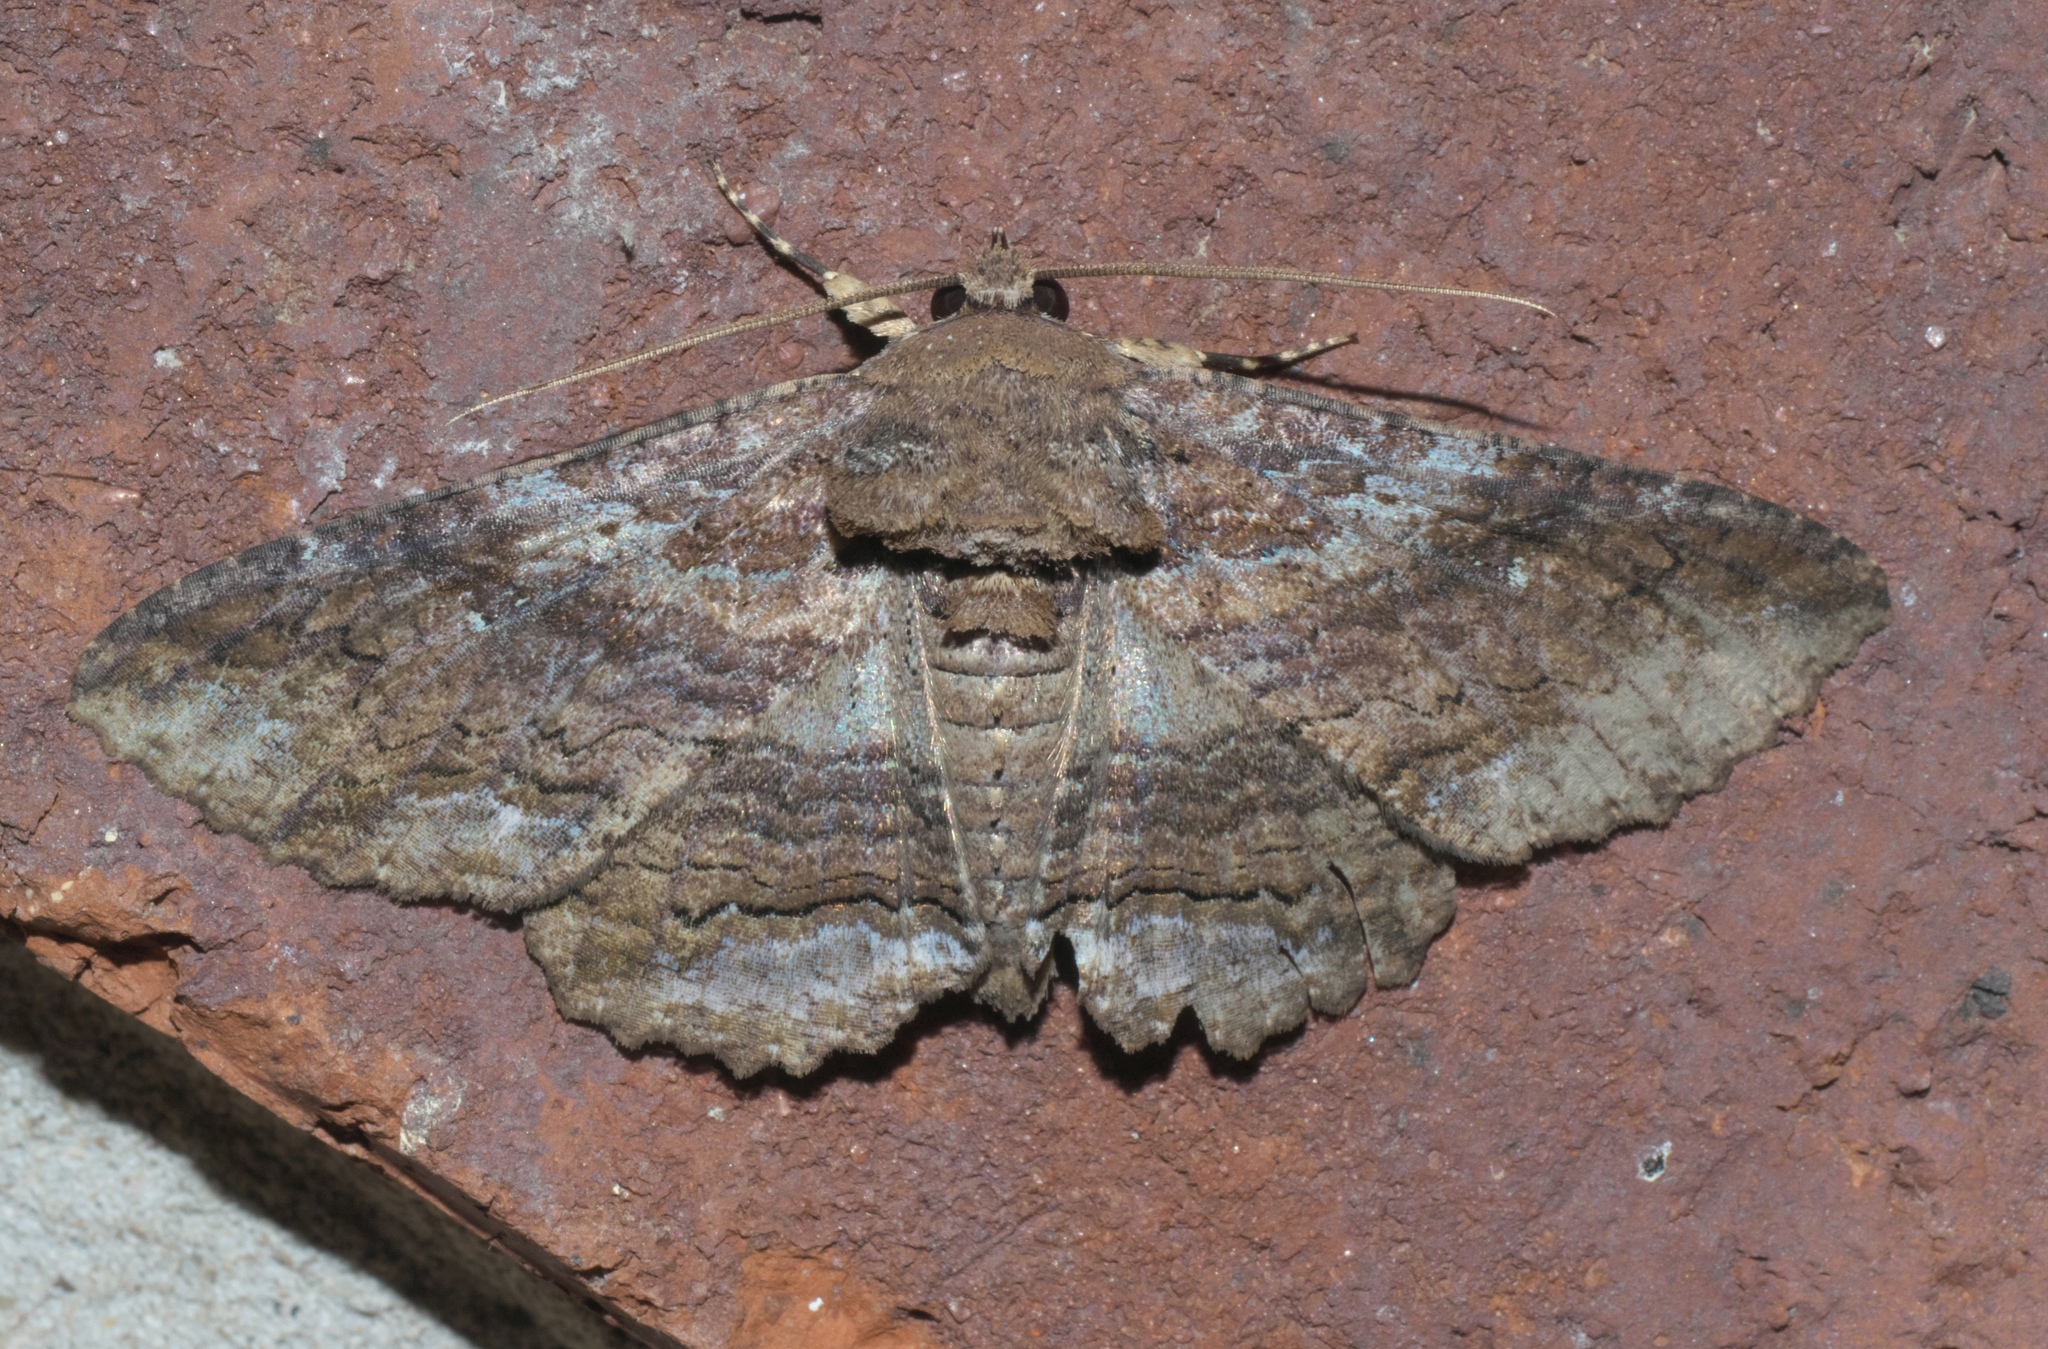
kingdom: Animalia
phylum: Arthropoda
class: Insecta
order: Lepidoptera
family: Erebidae
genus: Zale
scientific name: Zale lunata
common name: Lunate zale moth
